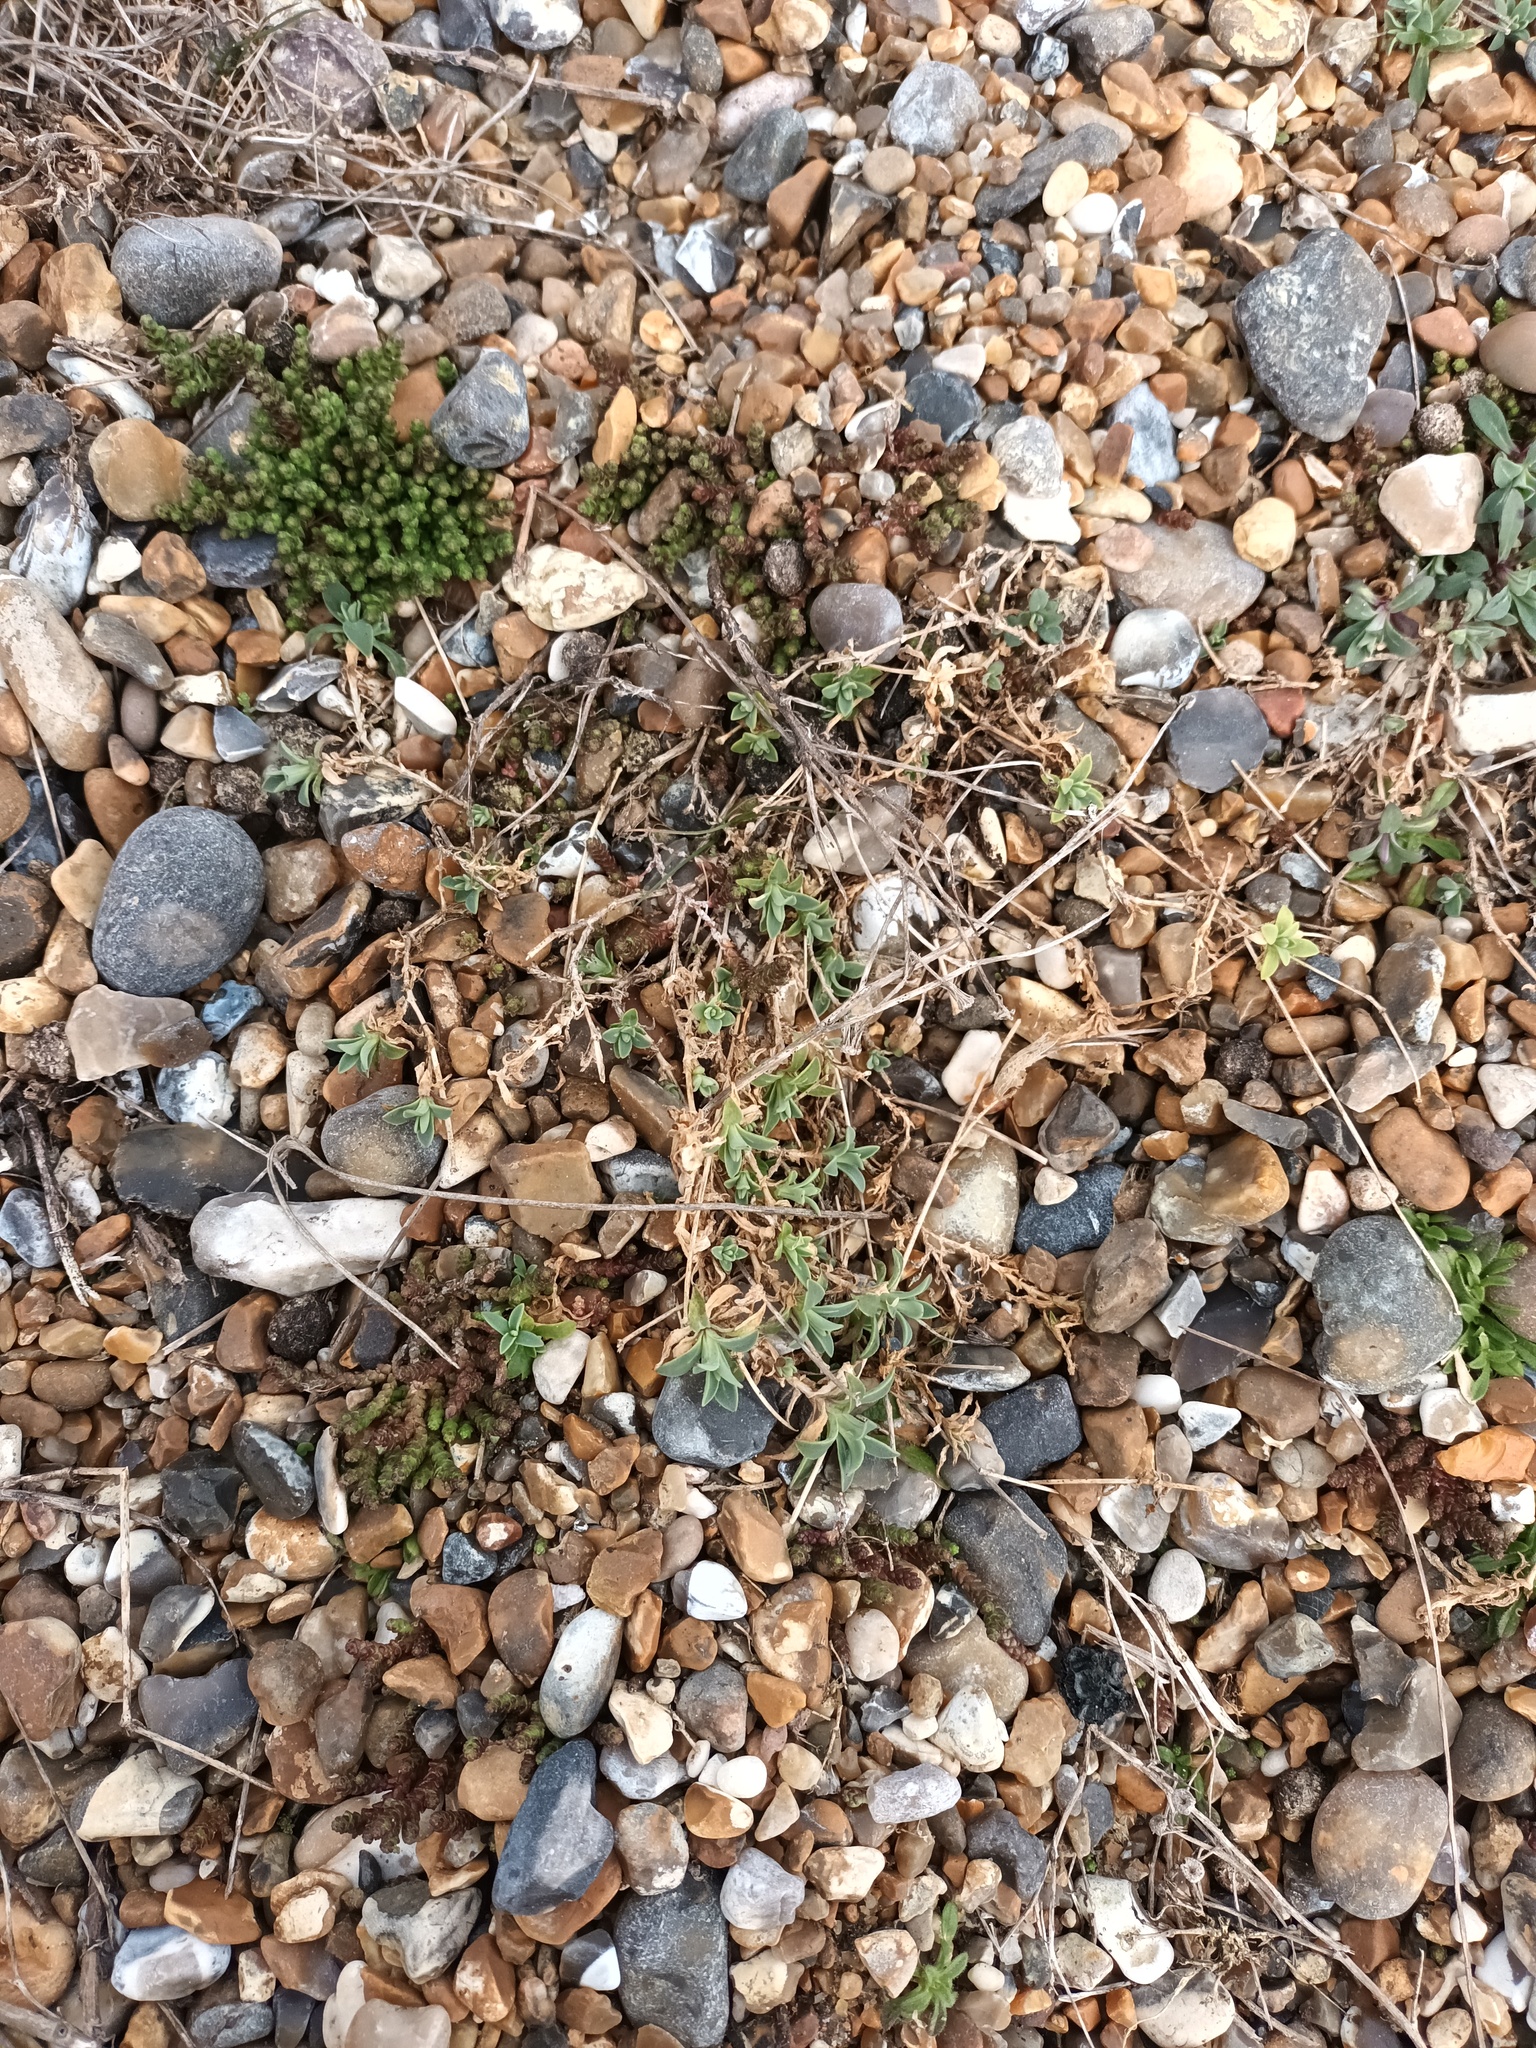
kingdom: Plantae
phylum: Tracheophyta
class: Magnoliopsida
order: Caryophyllales
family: Caryophyllaceae
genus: Silene
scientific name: Silene uniflora
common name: Sea campion
